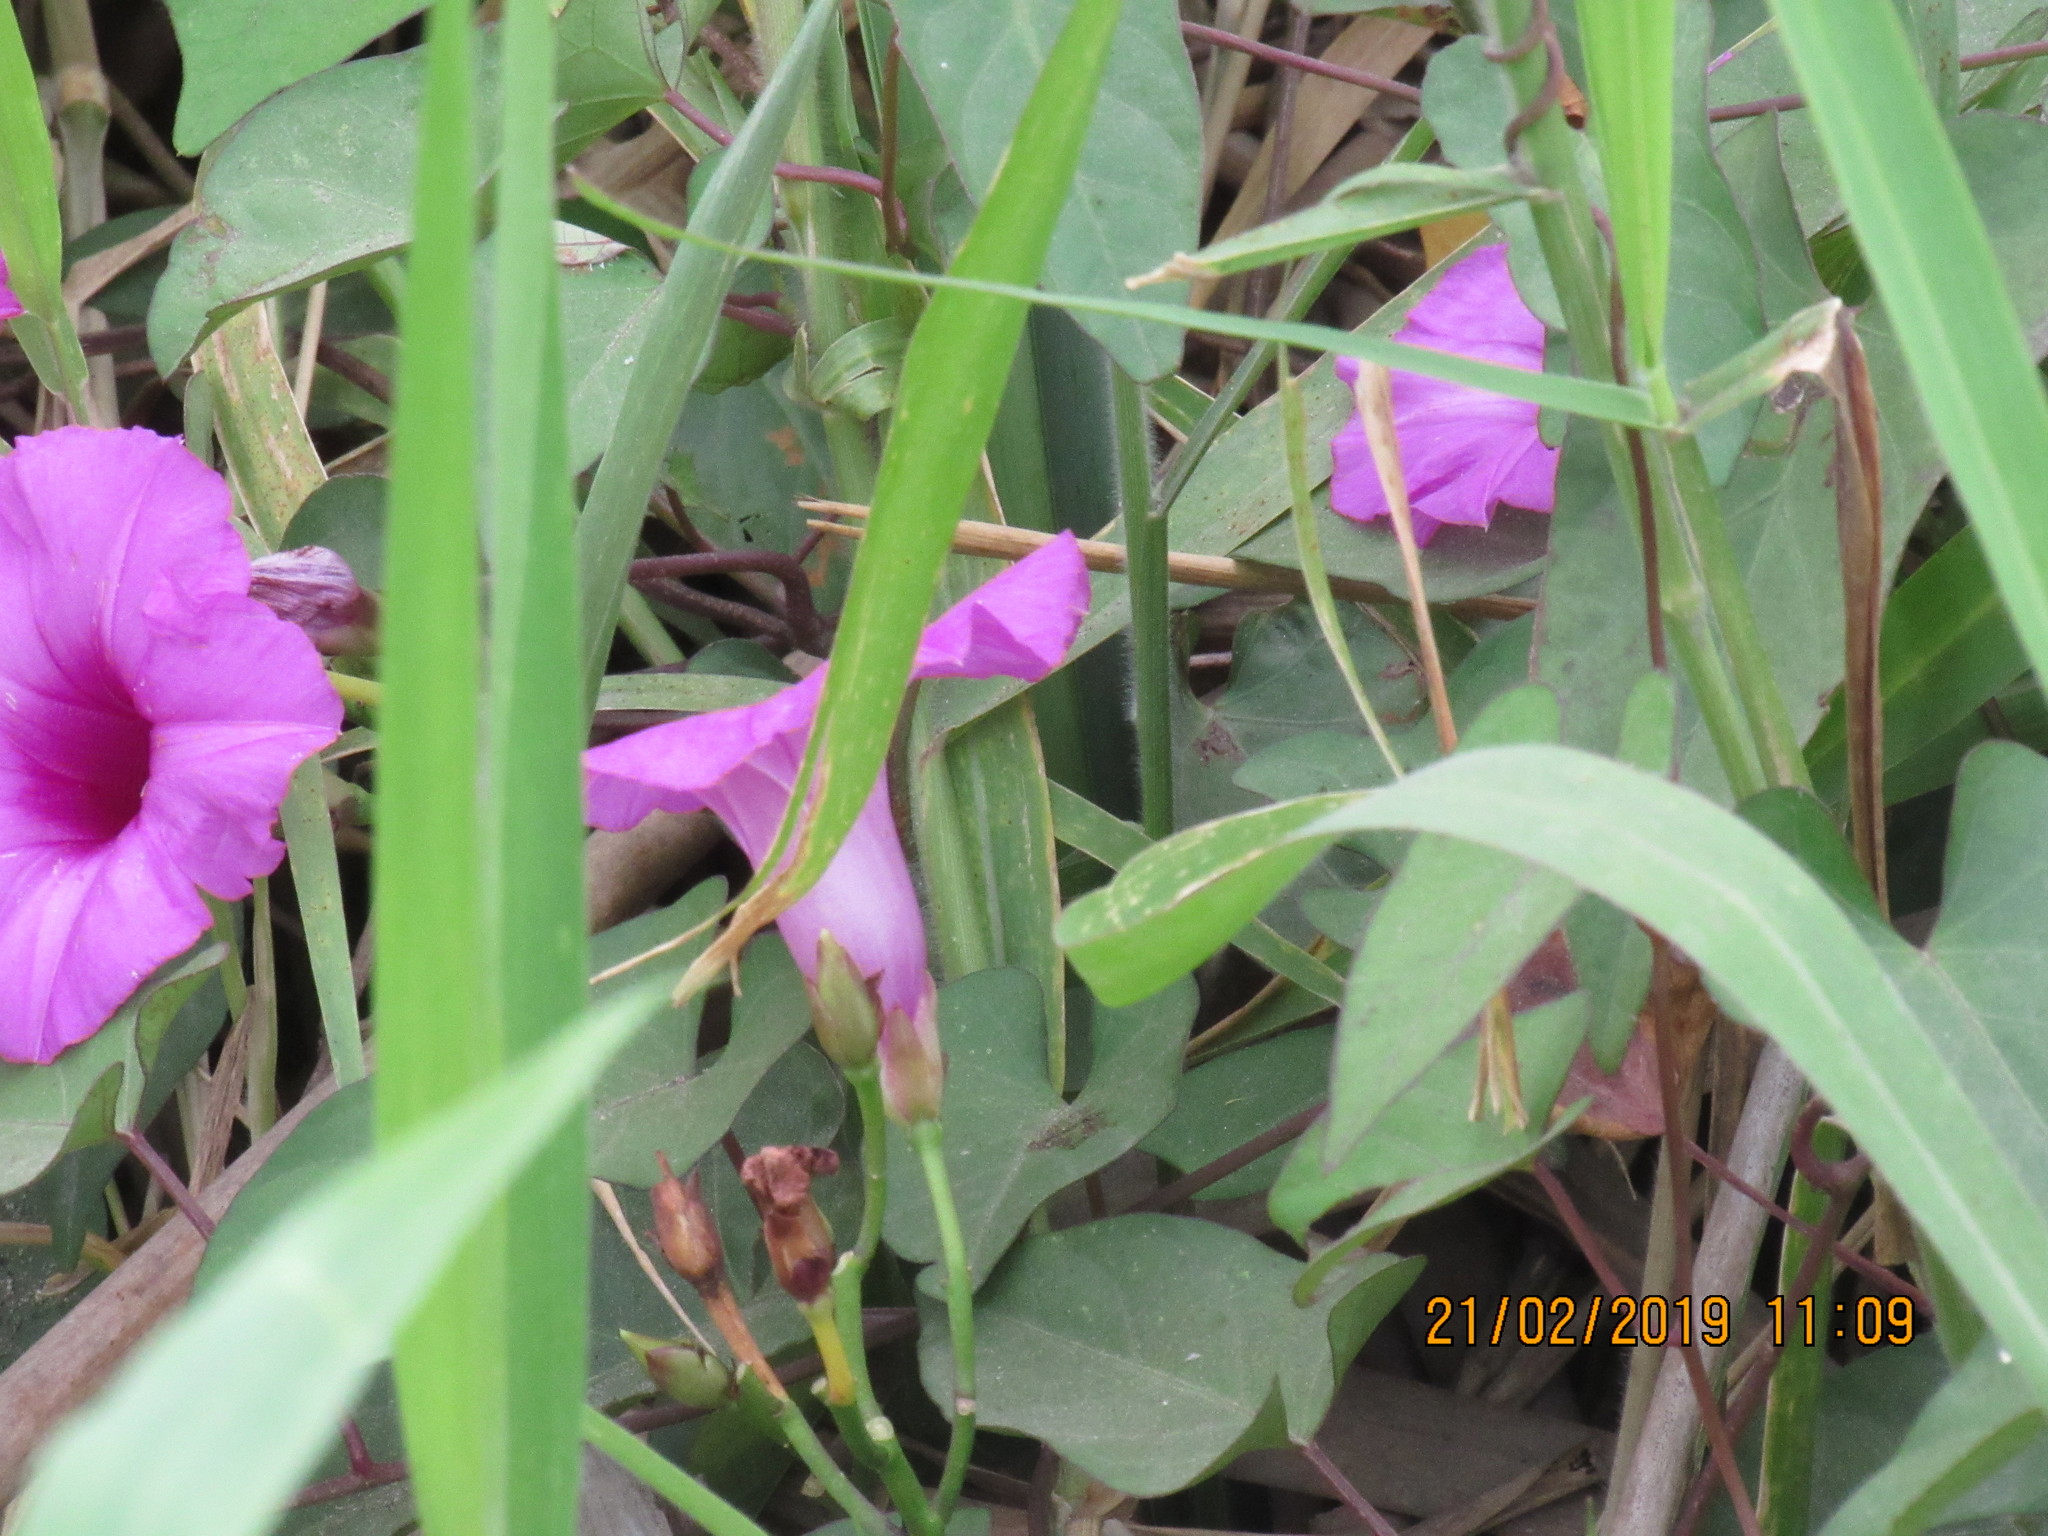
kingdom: Plantae
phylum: Tracheophyta
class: Magnoliopsida
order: Solanales
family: Convolvulaceae
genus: Ipomoea
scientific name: Ipomoea tiliacea
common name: Wild potato vine
